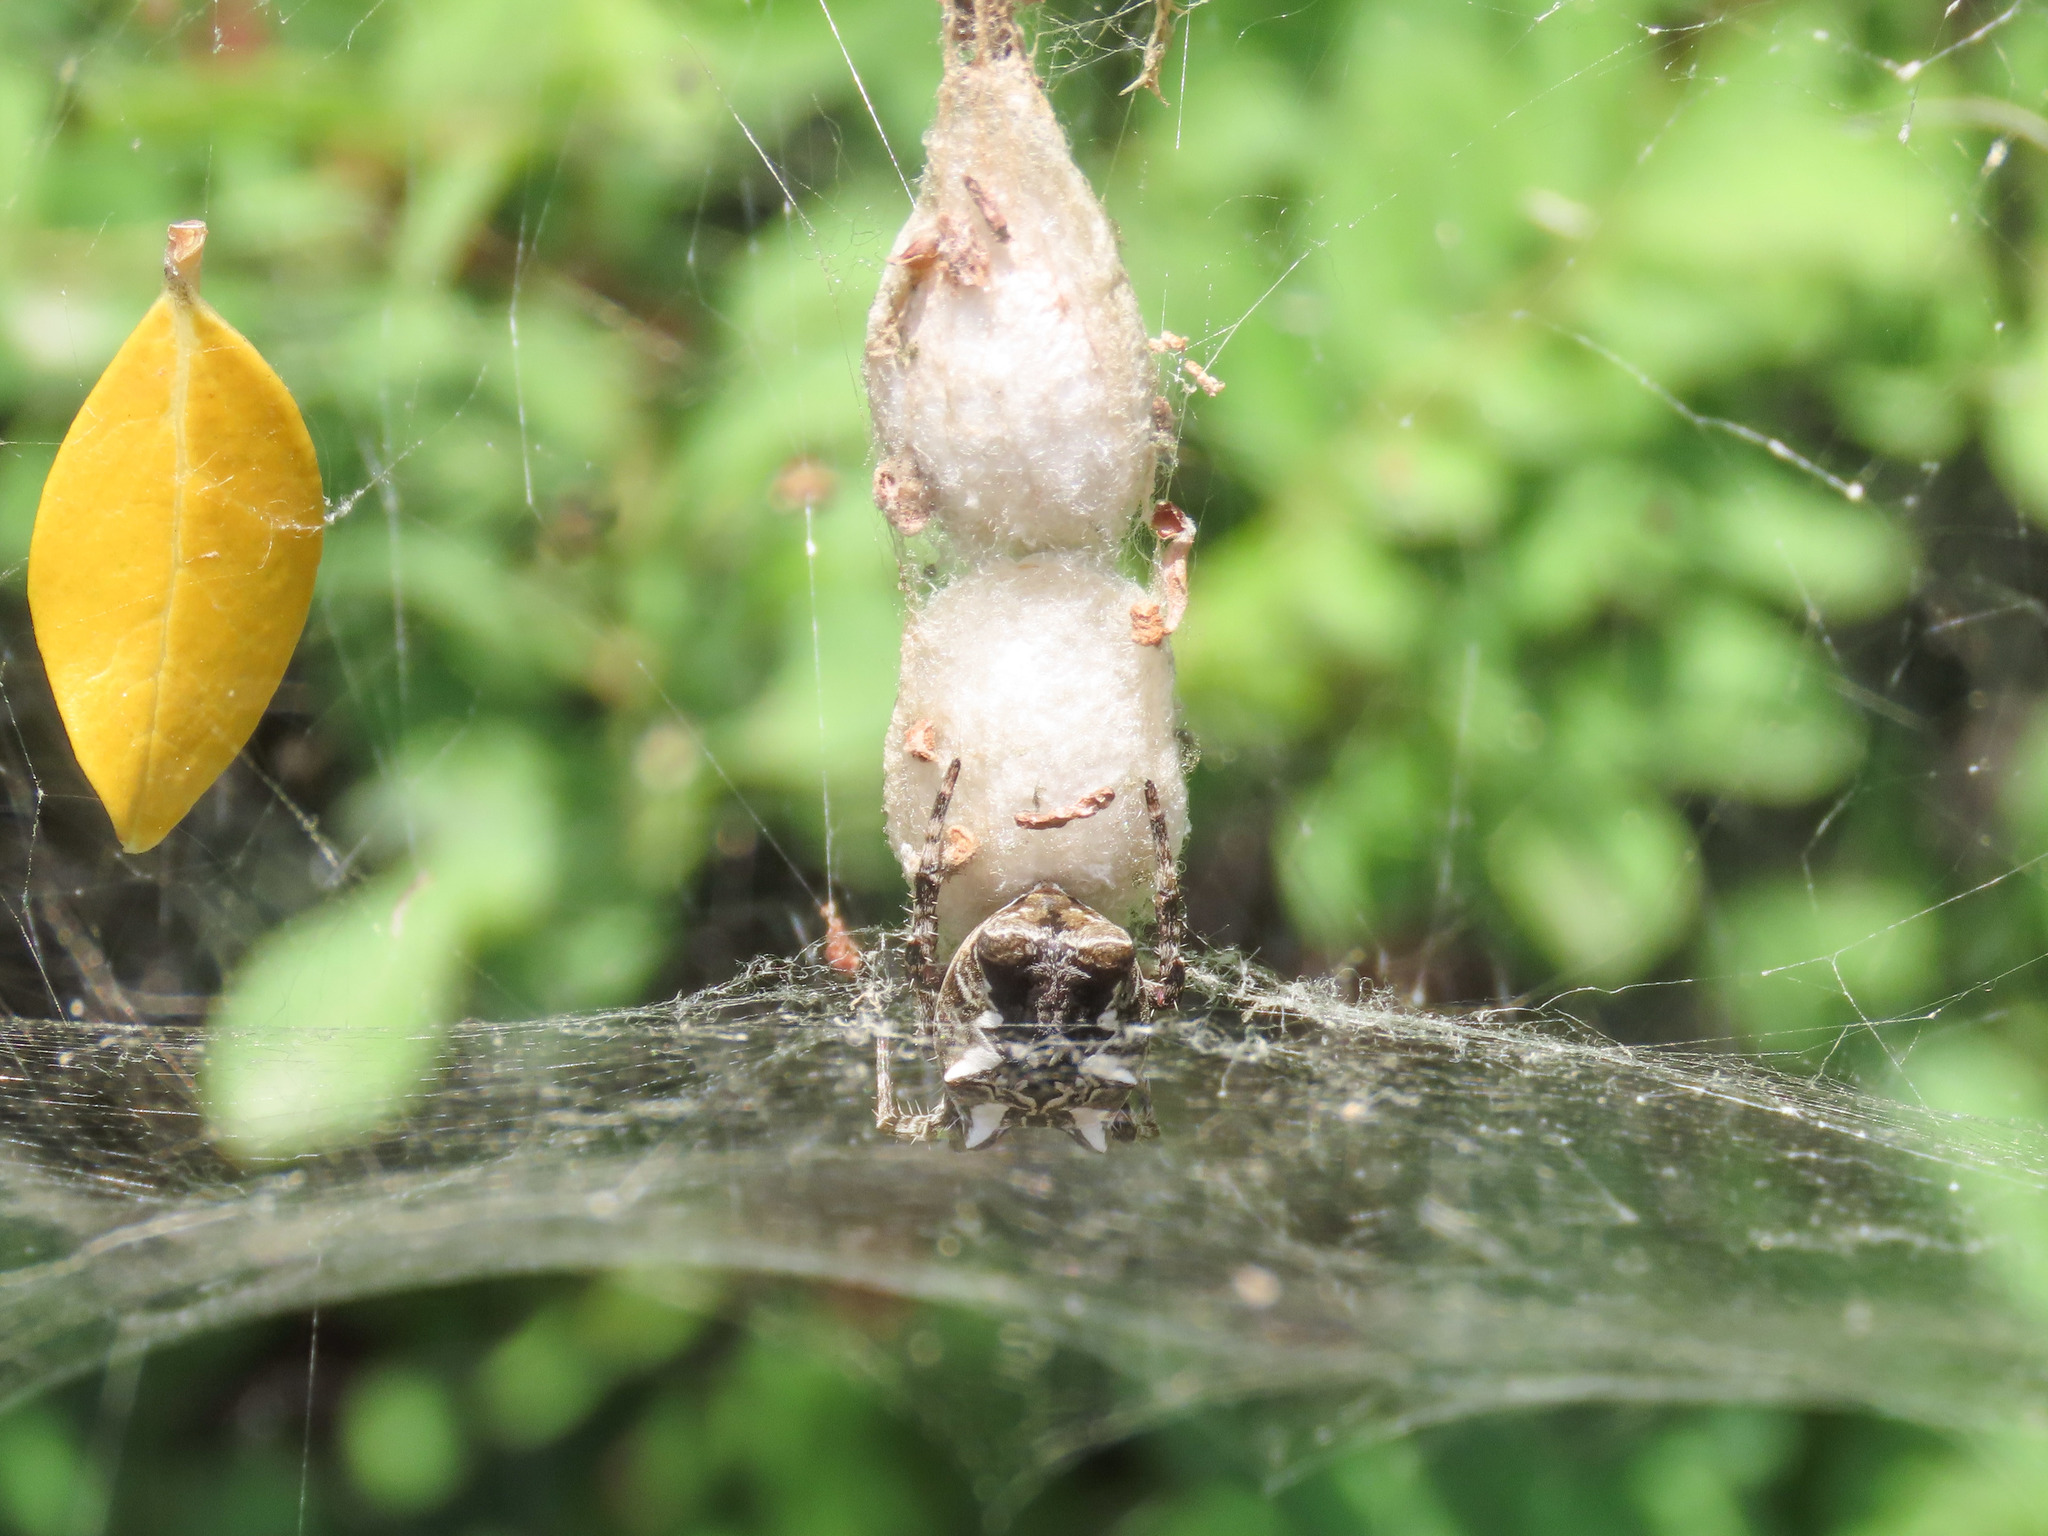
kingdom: Animalia
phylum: Arthropoda
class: Arachnida
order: Araneae
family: Araneidae
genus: Cyrtophora
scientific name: Cyrtophora citricola
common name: Orb weavers
